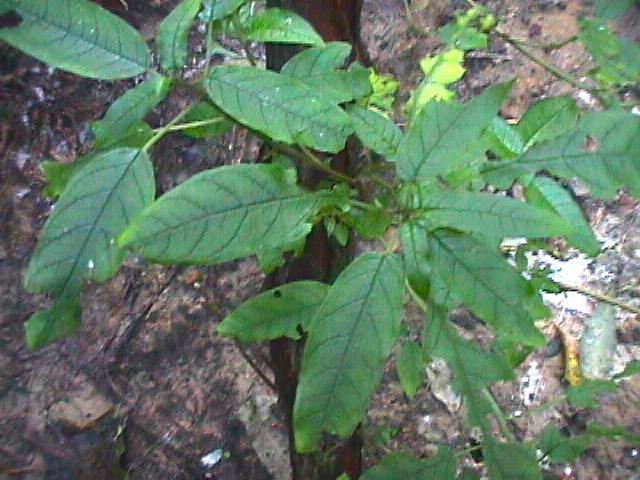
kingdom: Plantae
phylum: Tracheophyta
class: Magnoliopsida
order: Myrtales
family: Onagraceae
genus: Fuchsia
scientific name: Fuchsia excorticata
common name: Tree fuchsia
